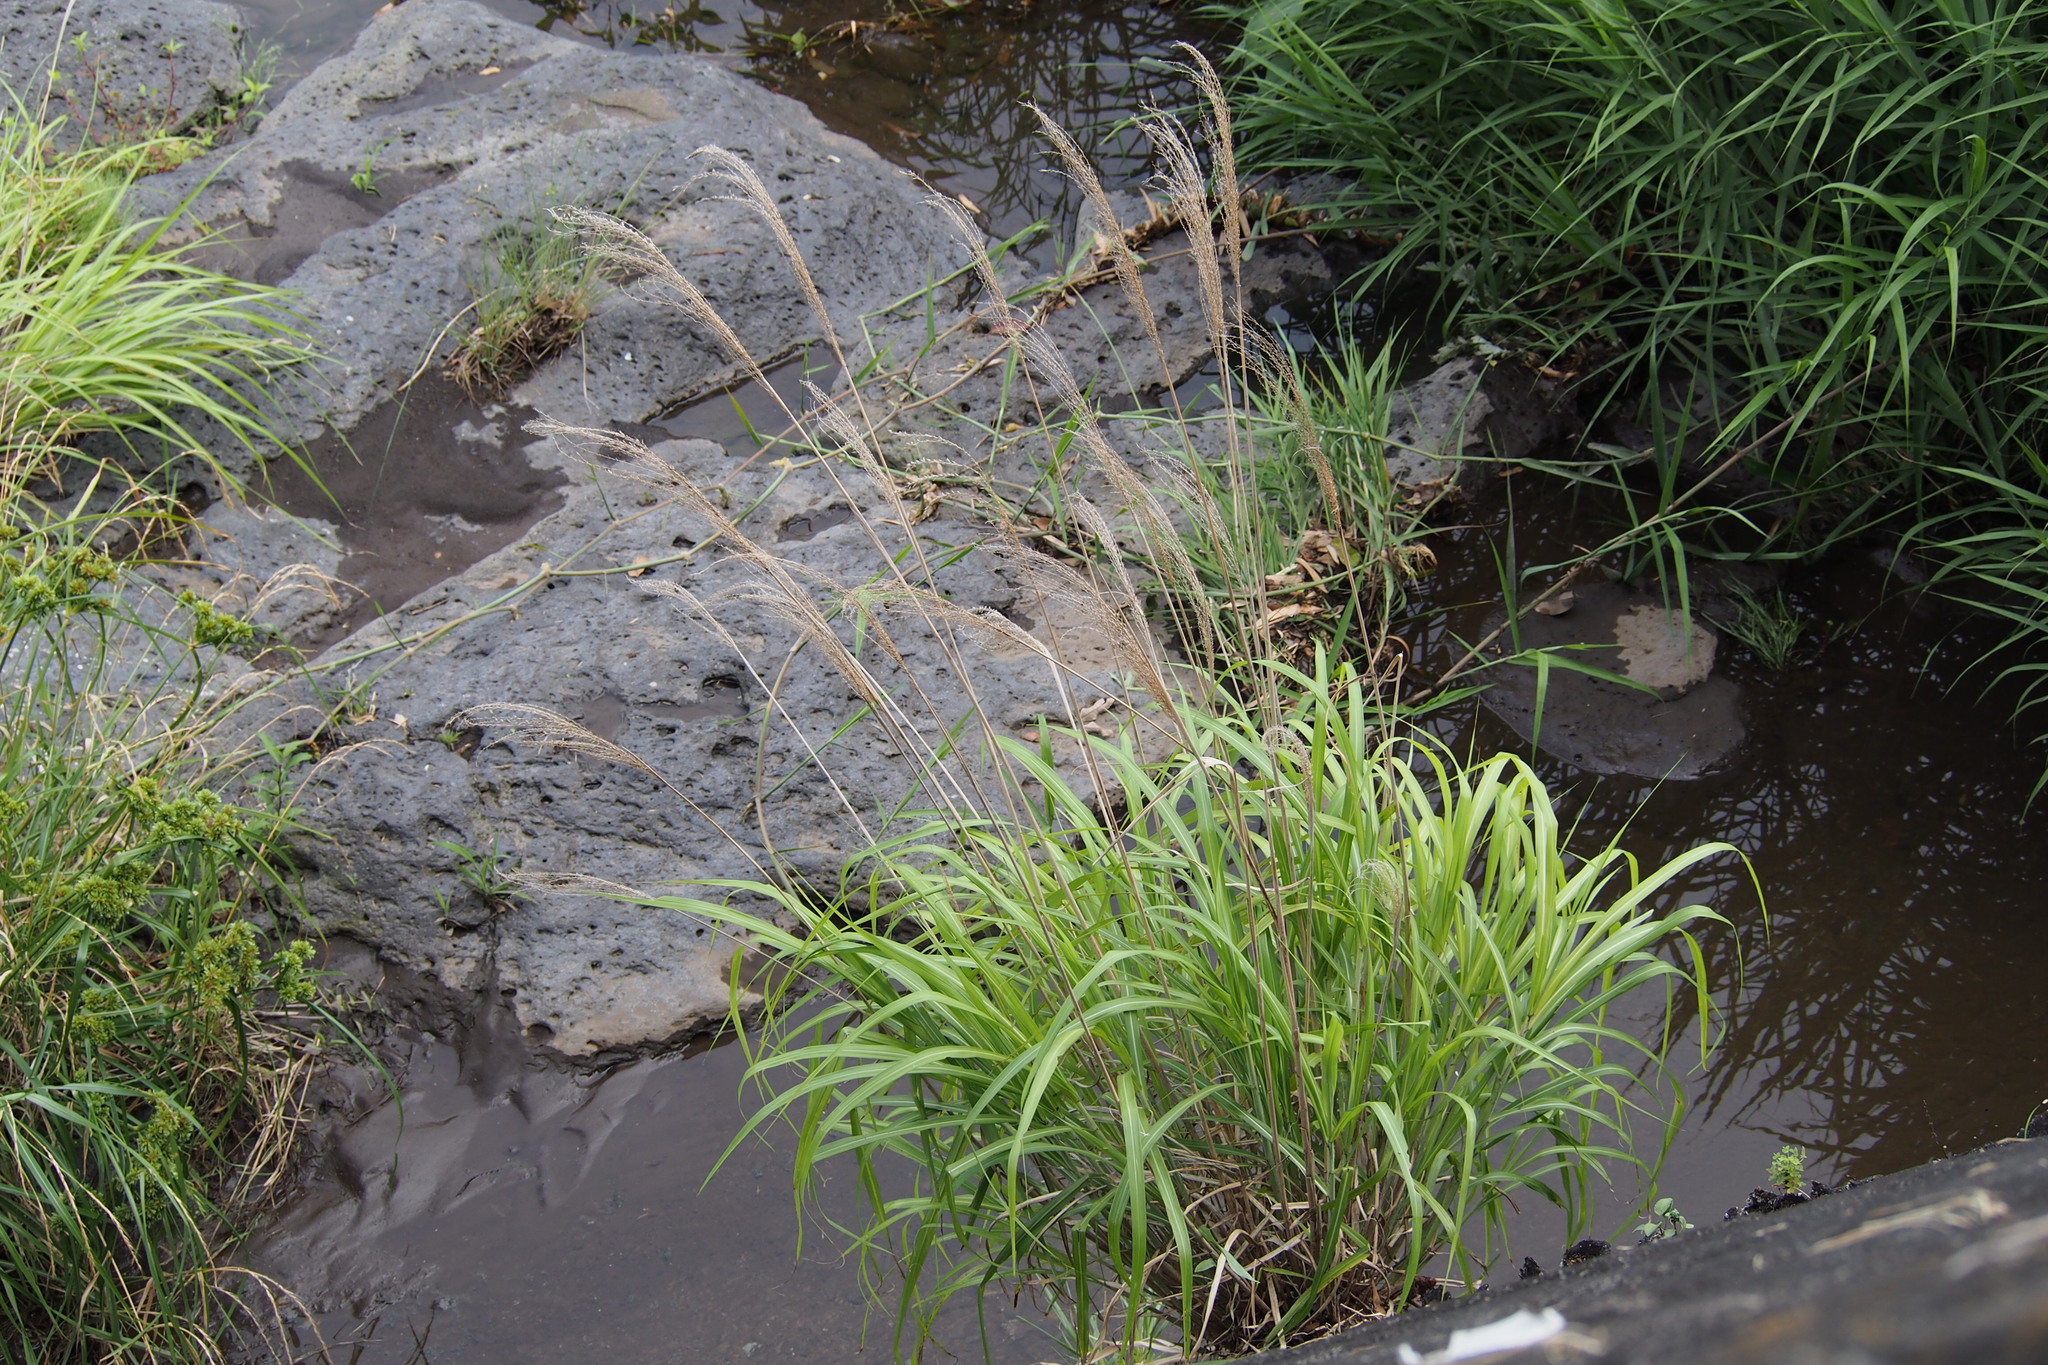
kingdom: Plantae
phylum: Tracheophyta
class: Liliopsida
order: Poales
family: Poaceae
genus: Miscanthus
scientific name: Miscanthus sinensis
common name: Chinese silvergrass
